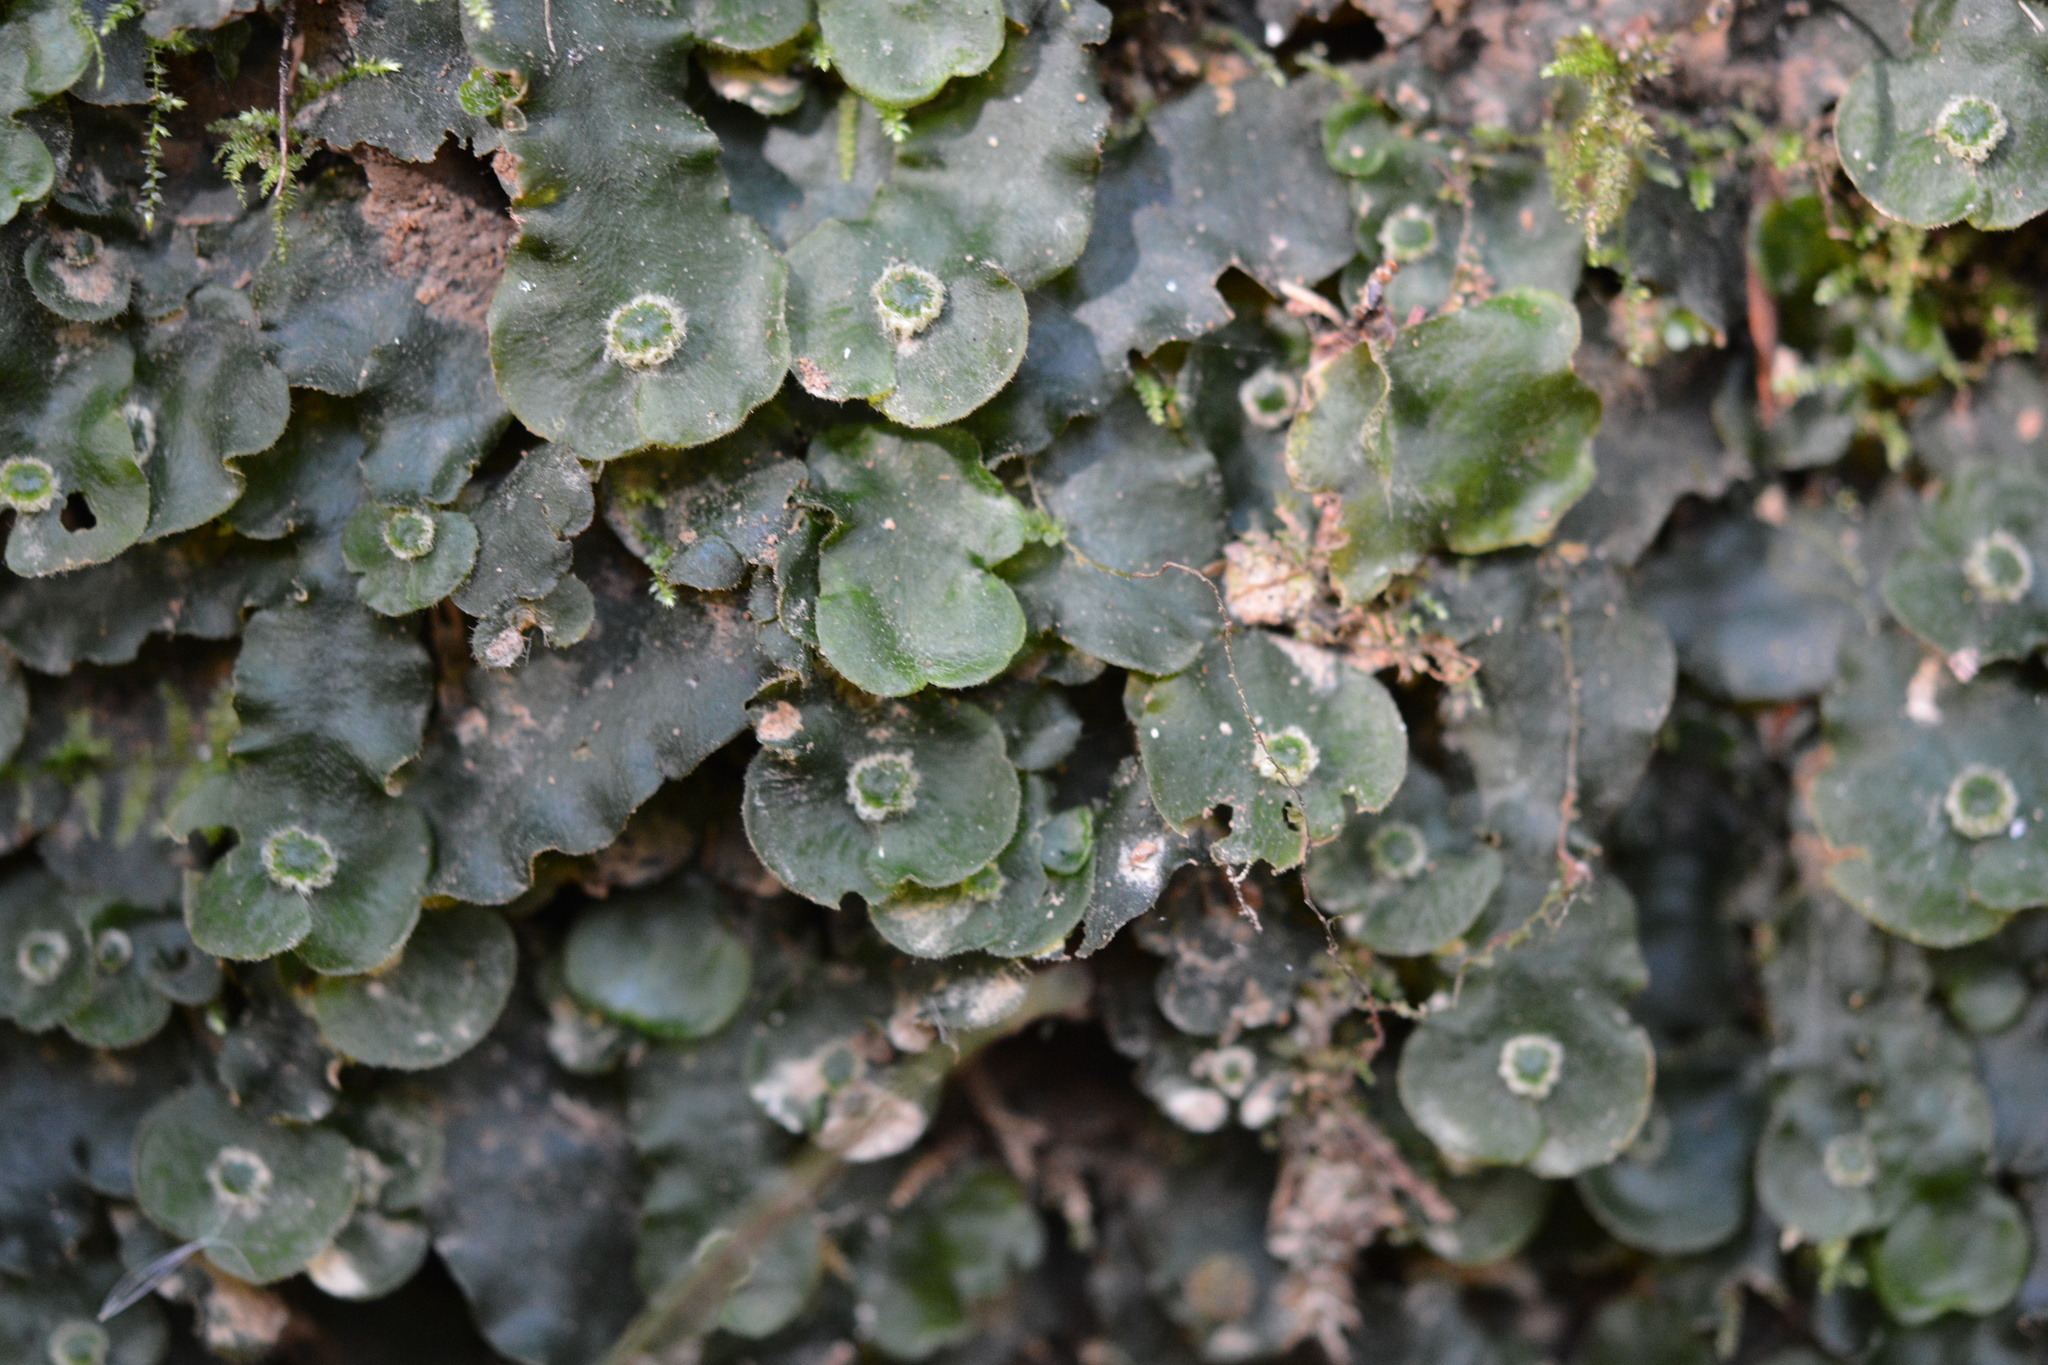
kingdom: Plantae
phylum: Marchantiophyta
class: Marchantiopsida
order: Marchantiales
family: Dumortieraceae
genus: Dumortiera
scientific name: Dumortiera hirsuta
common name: Dumortier's liverwort
